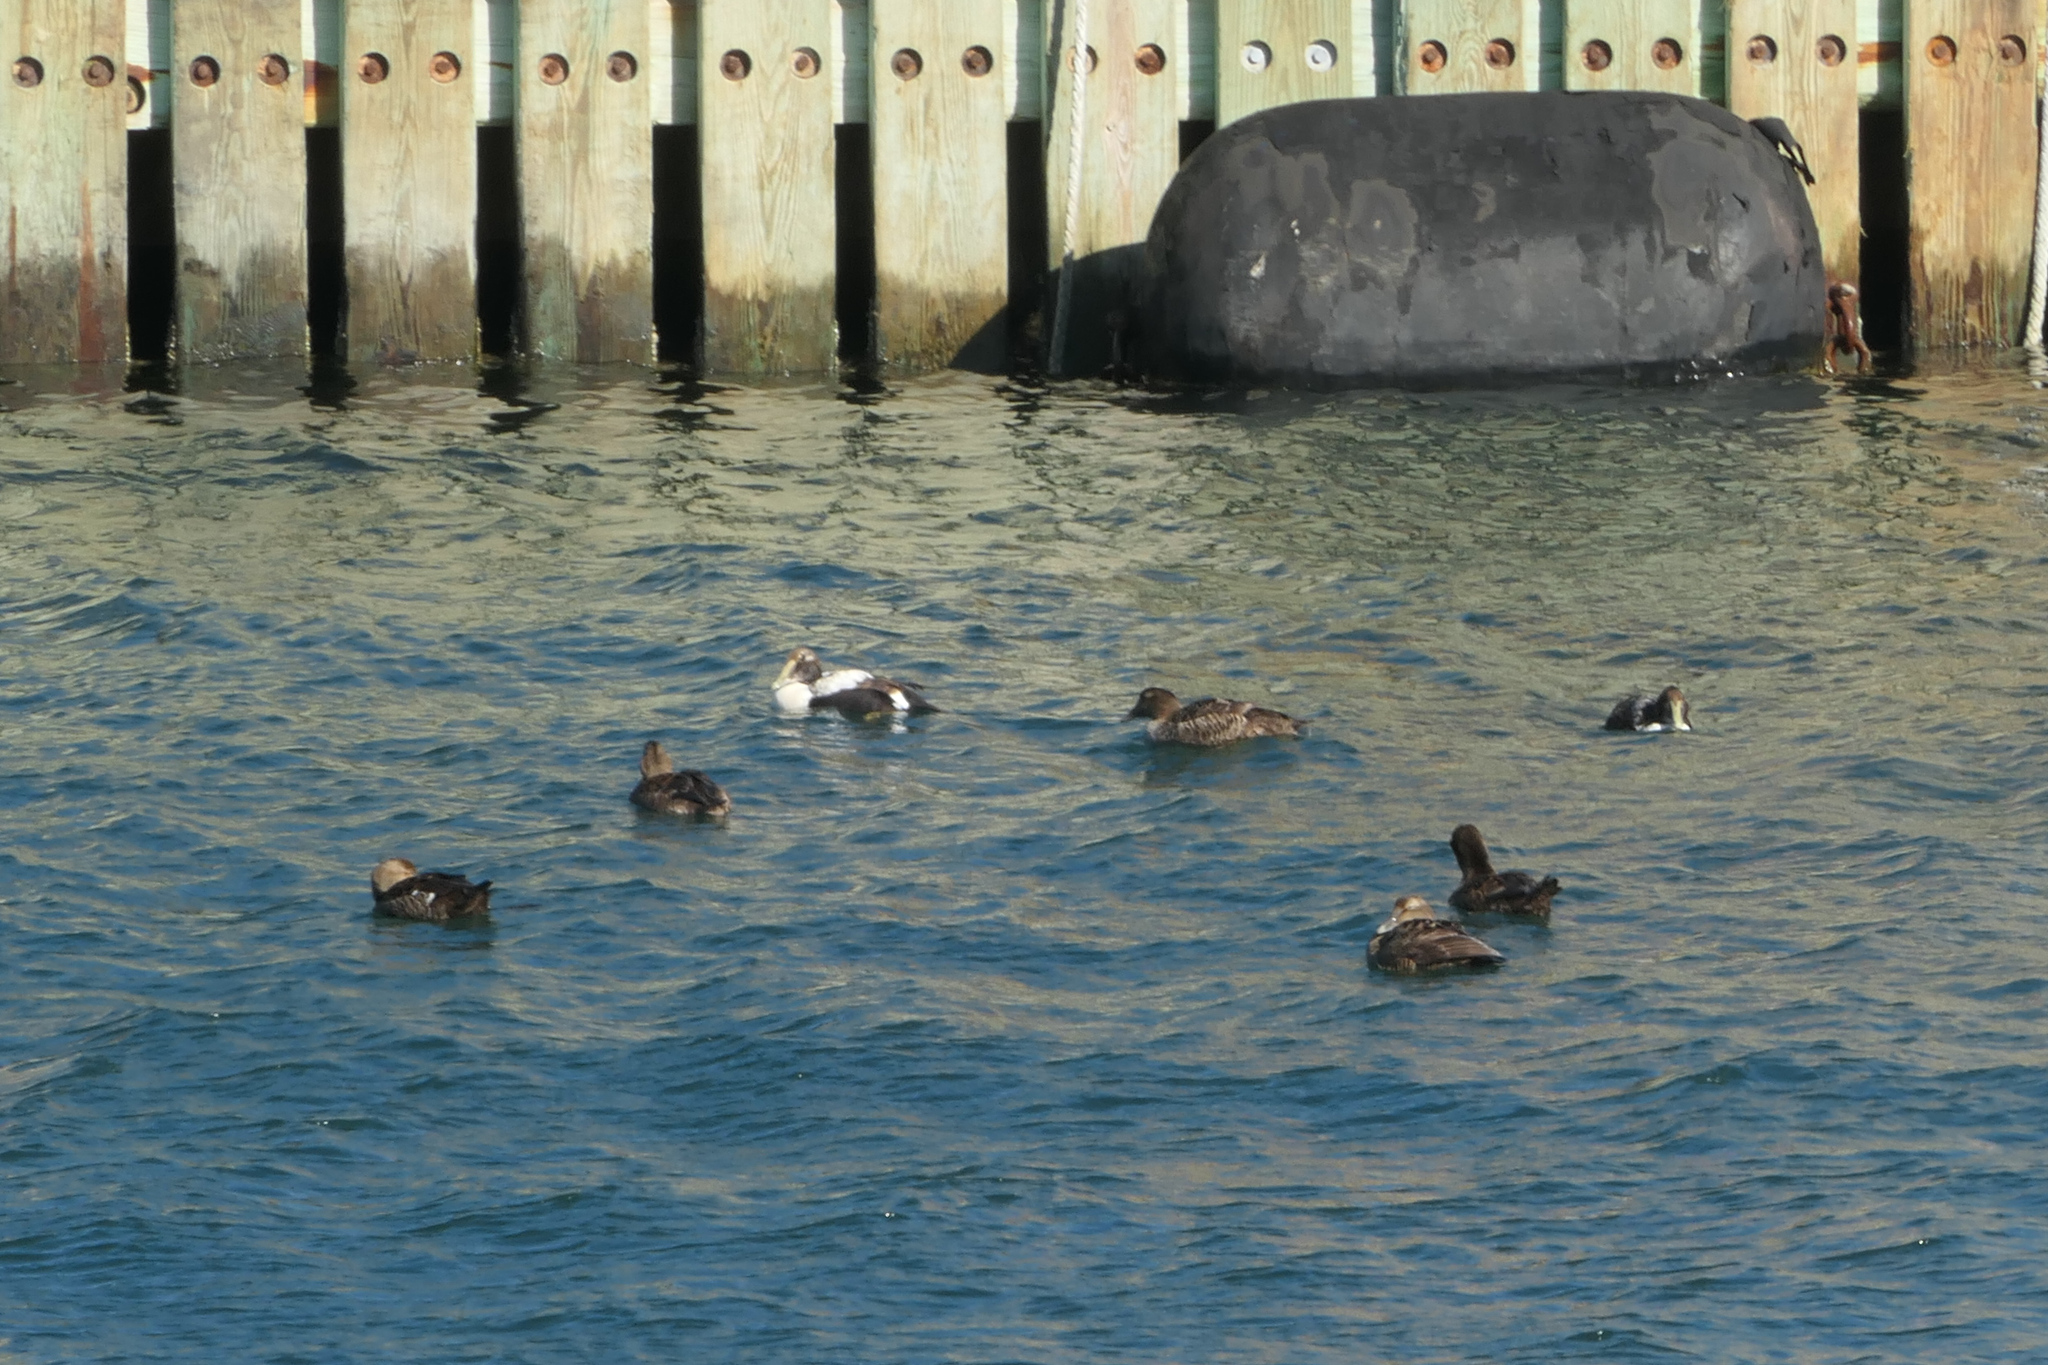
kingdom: Animalia
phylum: Chordata
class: Aves
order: Anseriformes
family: Anatidae
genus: Somateria
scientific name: Somateria mollissima
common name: Common eider
